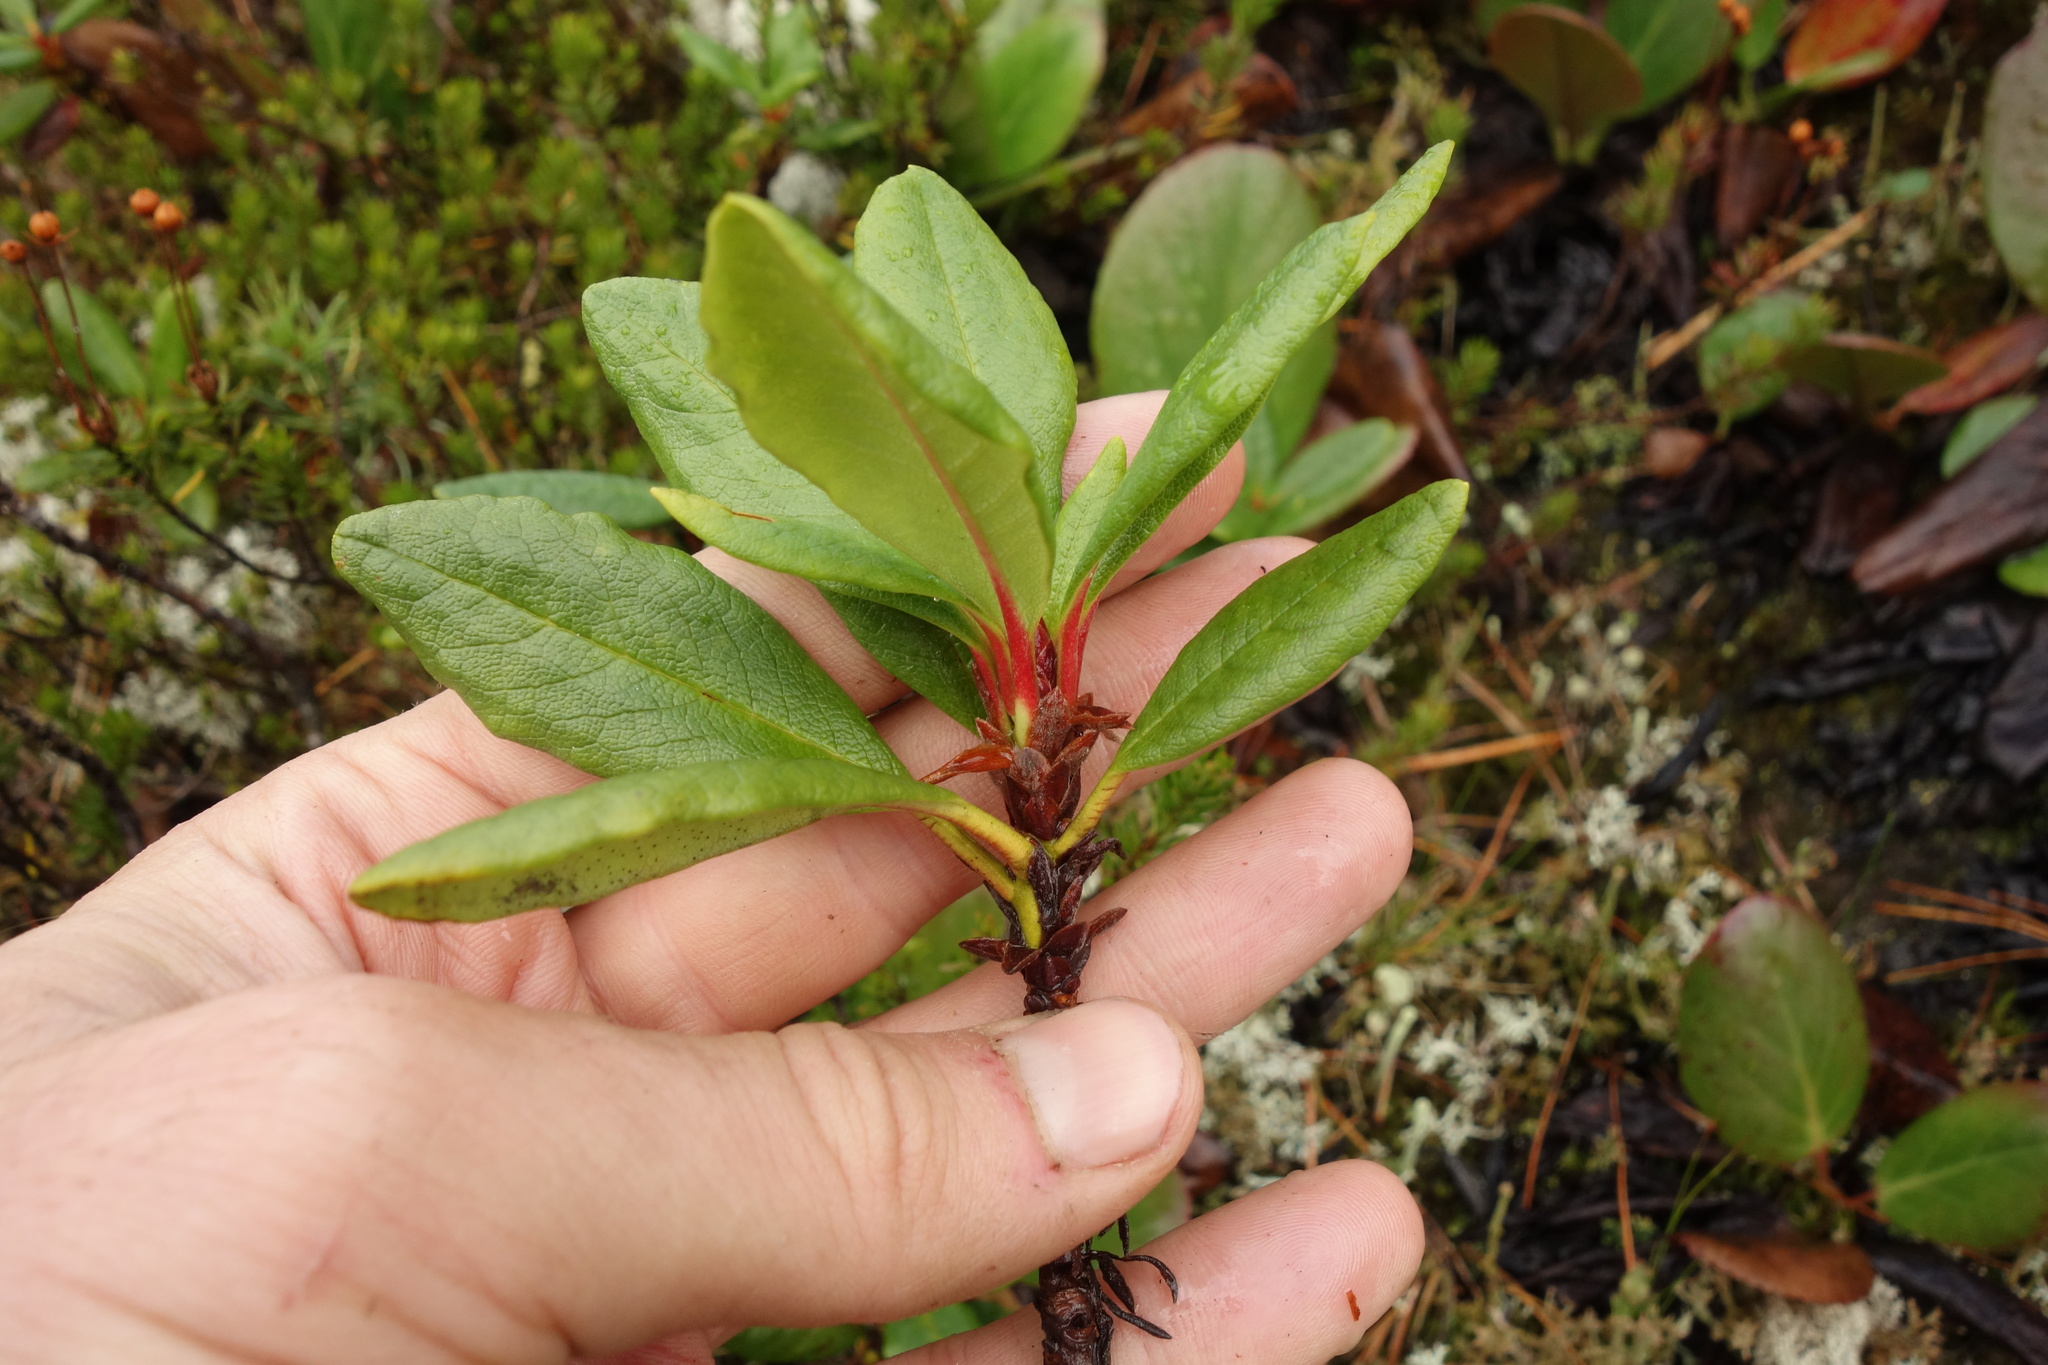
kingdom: Plantae
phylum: Tracheophyta
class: Magnoliopsida
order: Ericales
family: Ericaceae
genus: Rhododendron
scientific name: Rhododendron aureum
